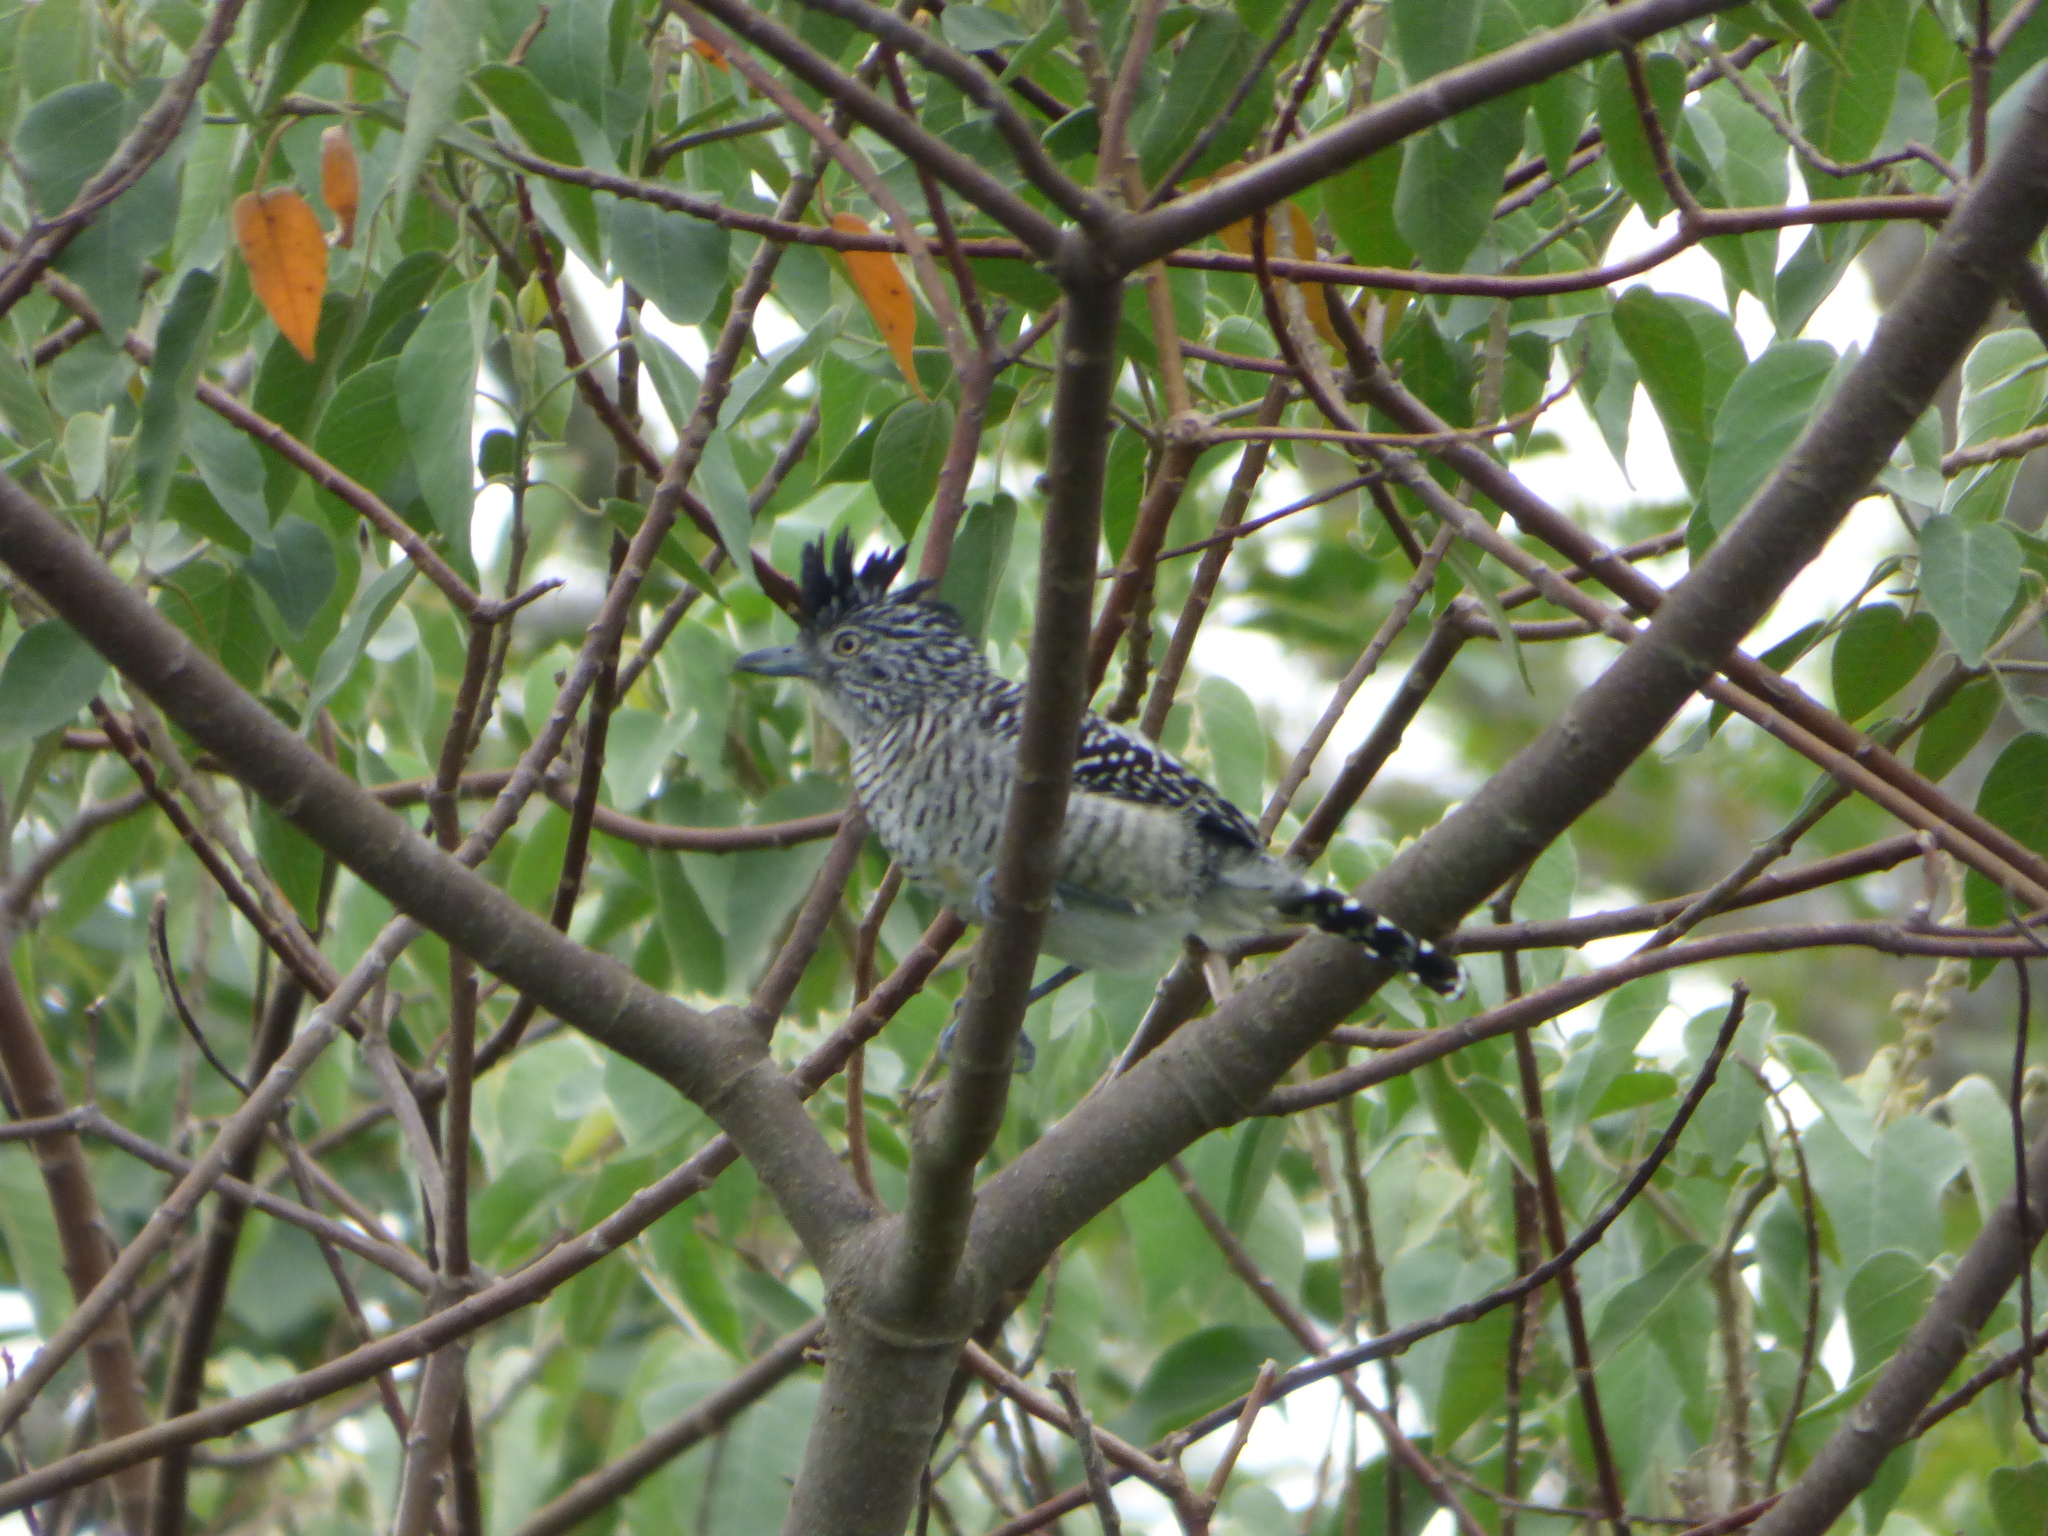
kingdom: Animalia
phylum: Chordata
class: Aves
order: Passeriformes
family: Thamnophilidae
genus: Thamnophilus
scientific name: Thamnophilus doliatus
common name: Barred antshrike
